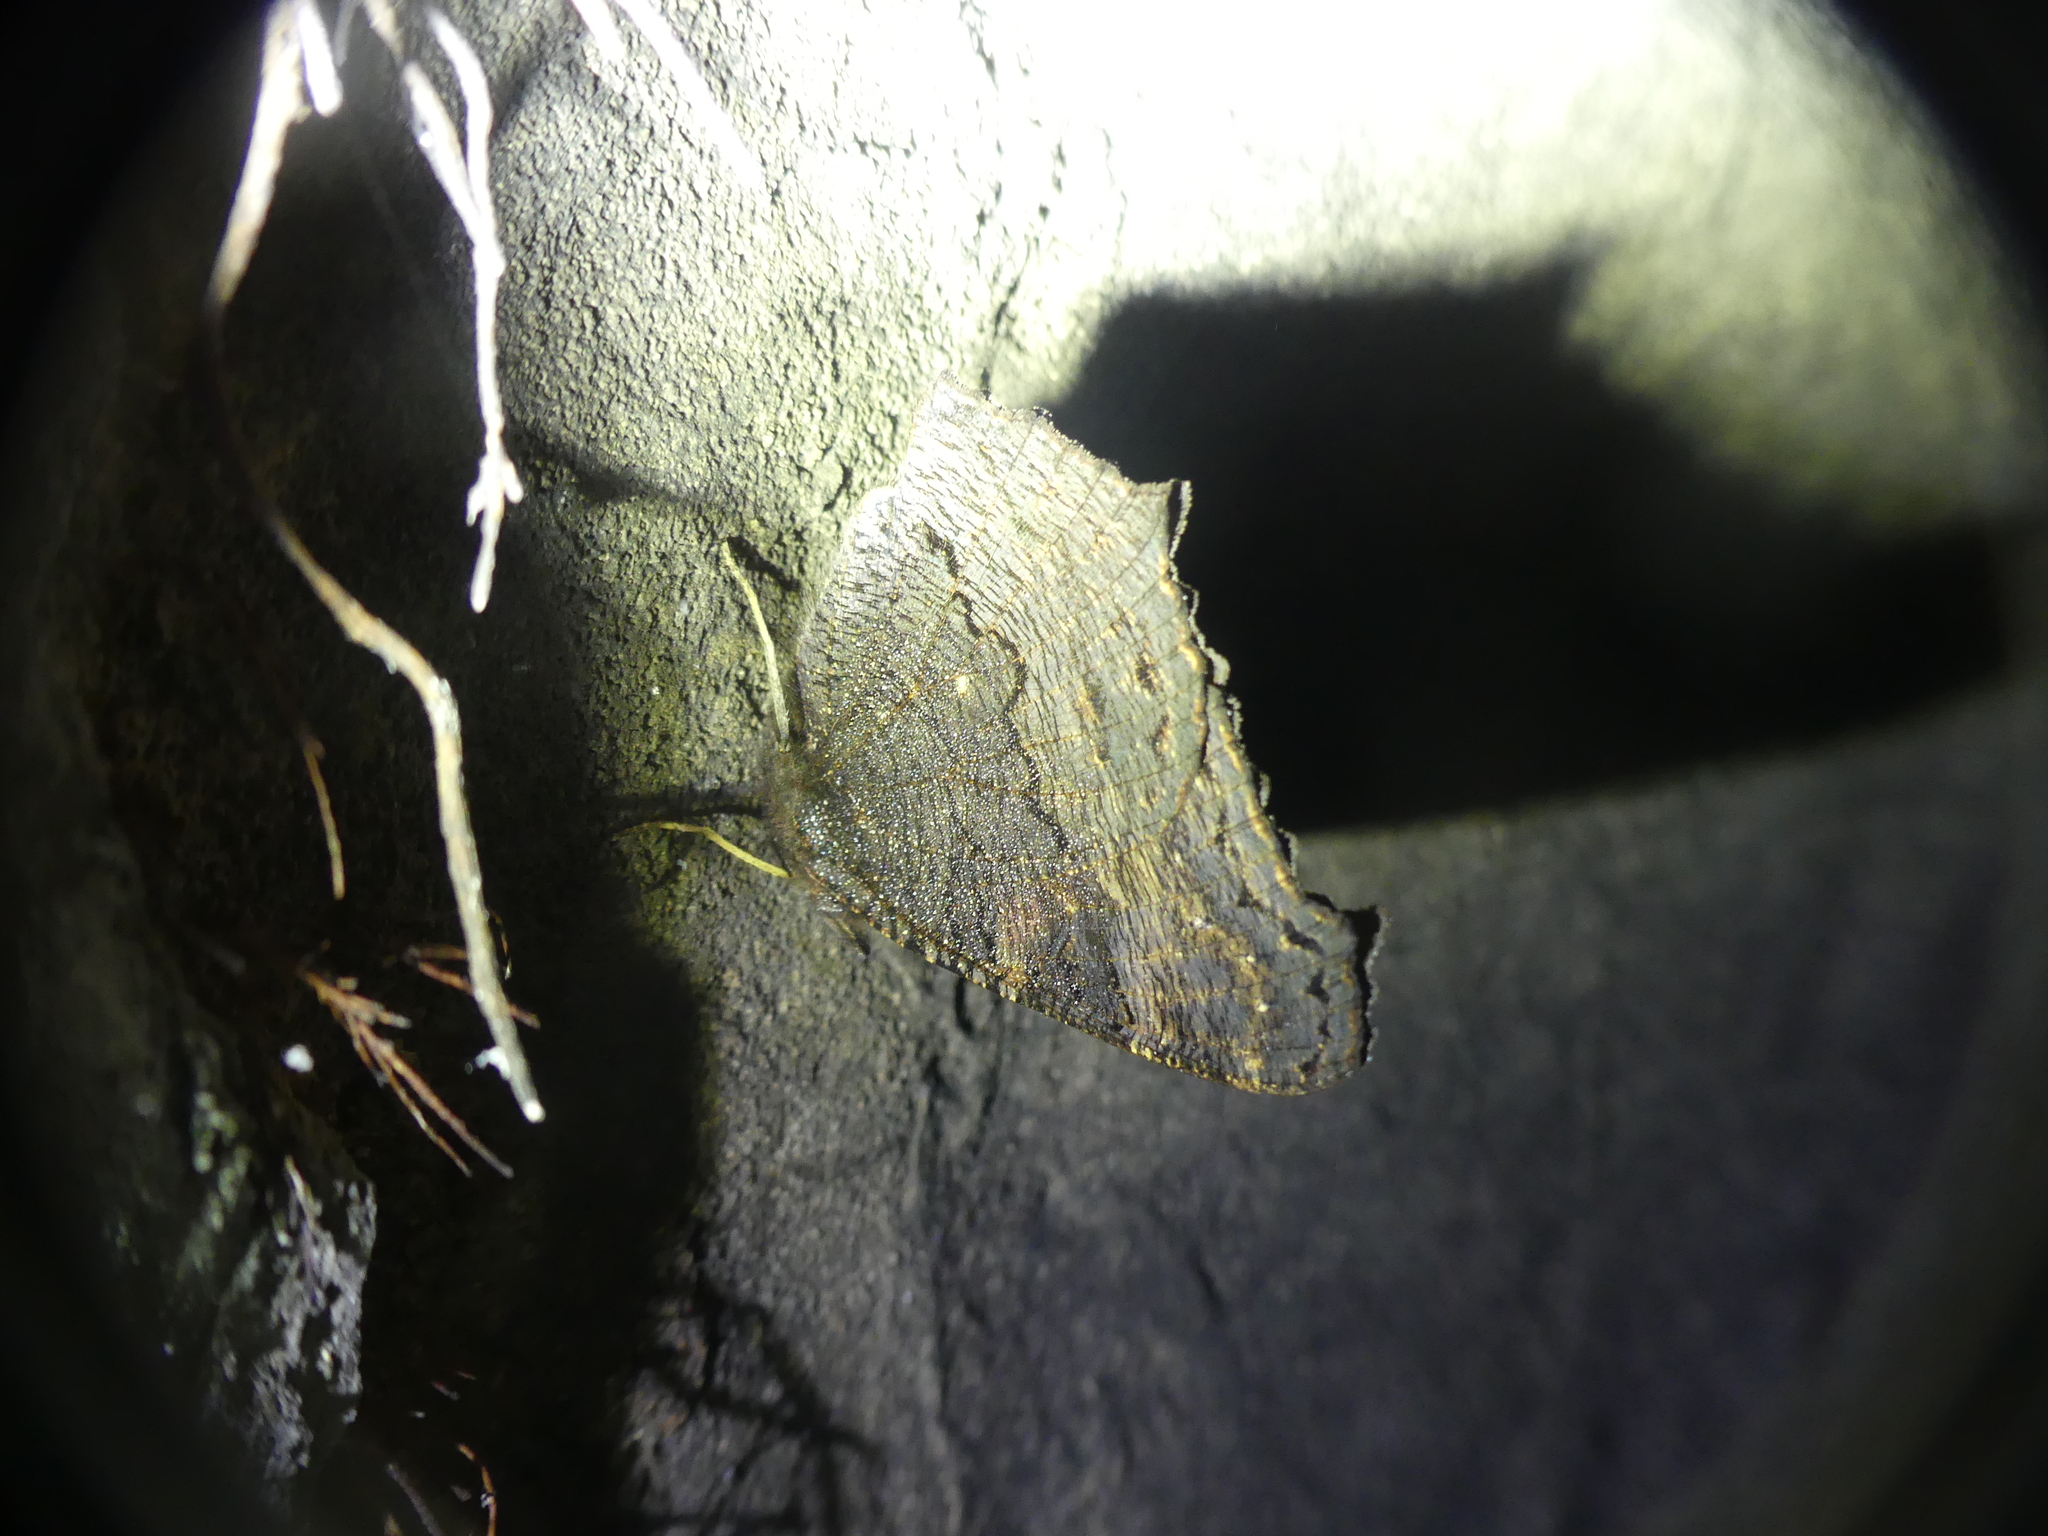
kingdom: Animalia
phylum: Arthropoda
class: Insecta
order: Lepidoptera
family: Nymphalidae
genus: Aglais
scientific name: Aglais io
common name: Peacock
